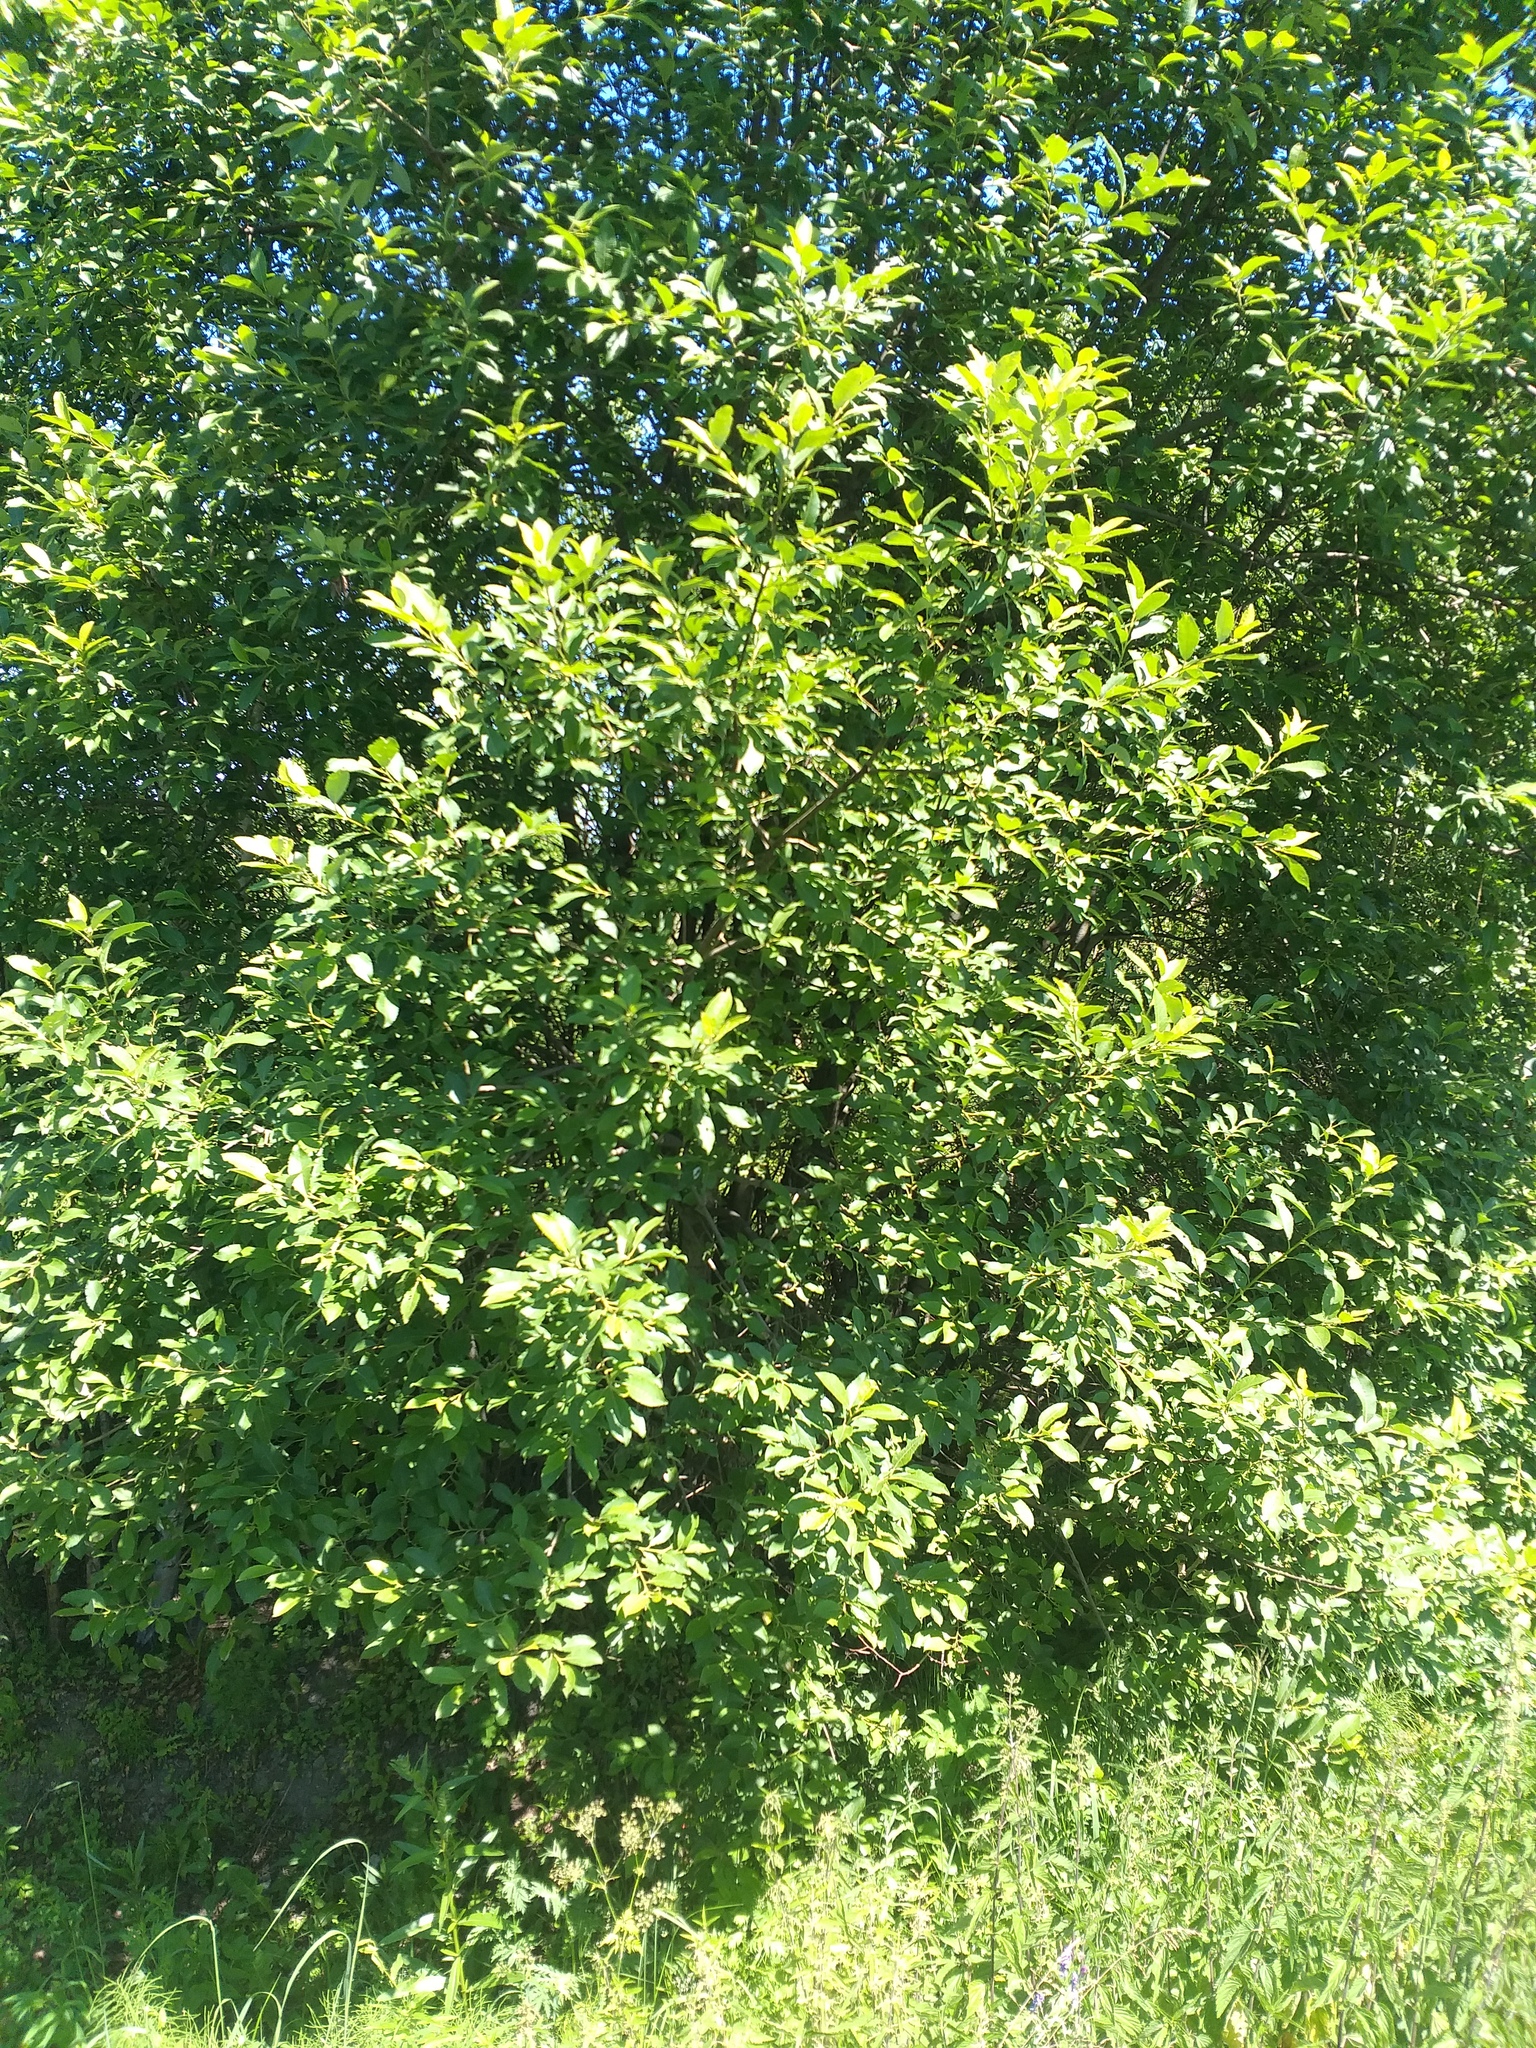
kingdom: Plantae
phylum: Tracheophyta
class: Magnoliopsida
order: Malpighiales
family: Salicaceae
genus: Salix
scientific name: Salix caprea
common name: Goat willow
